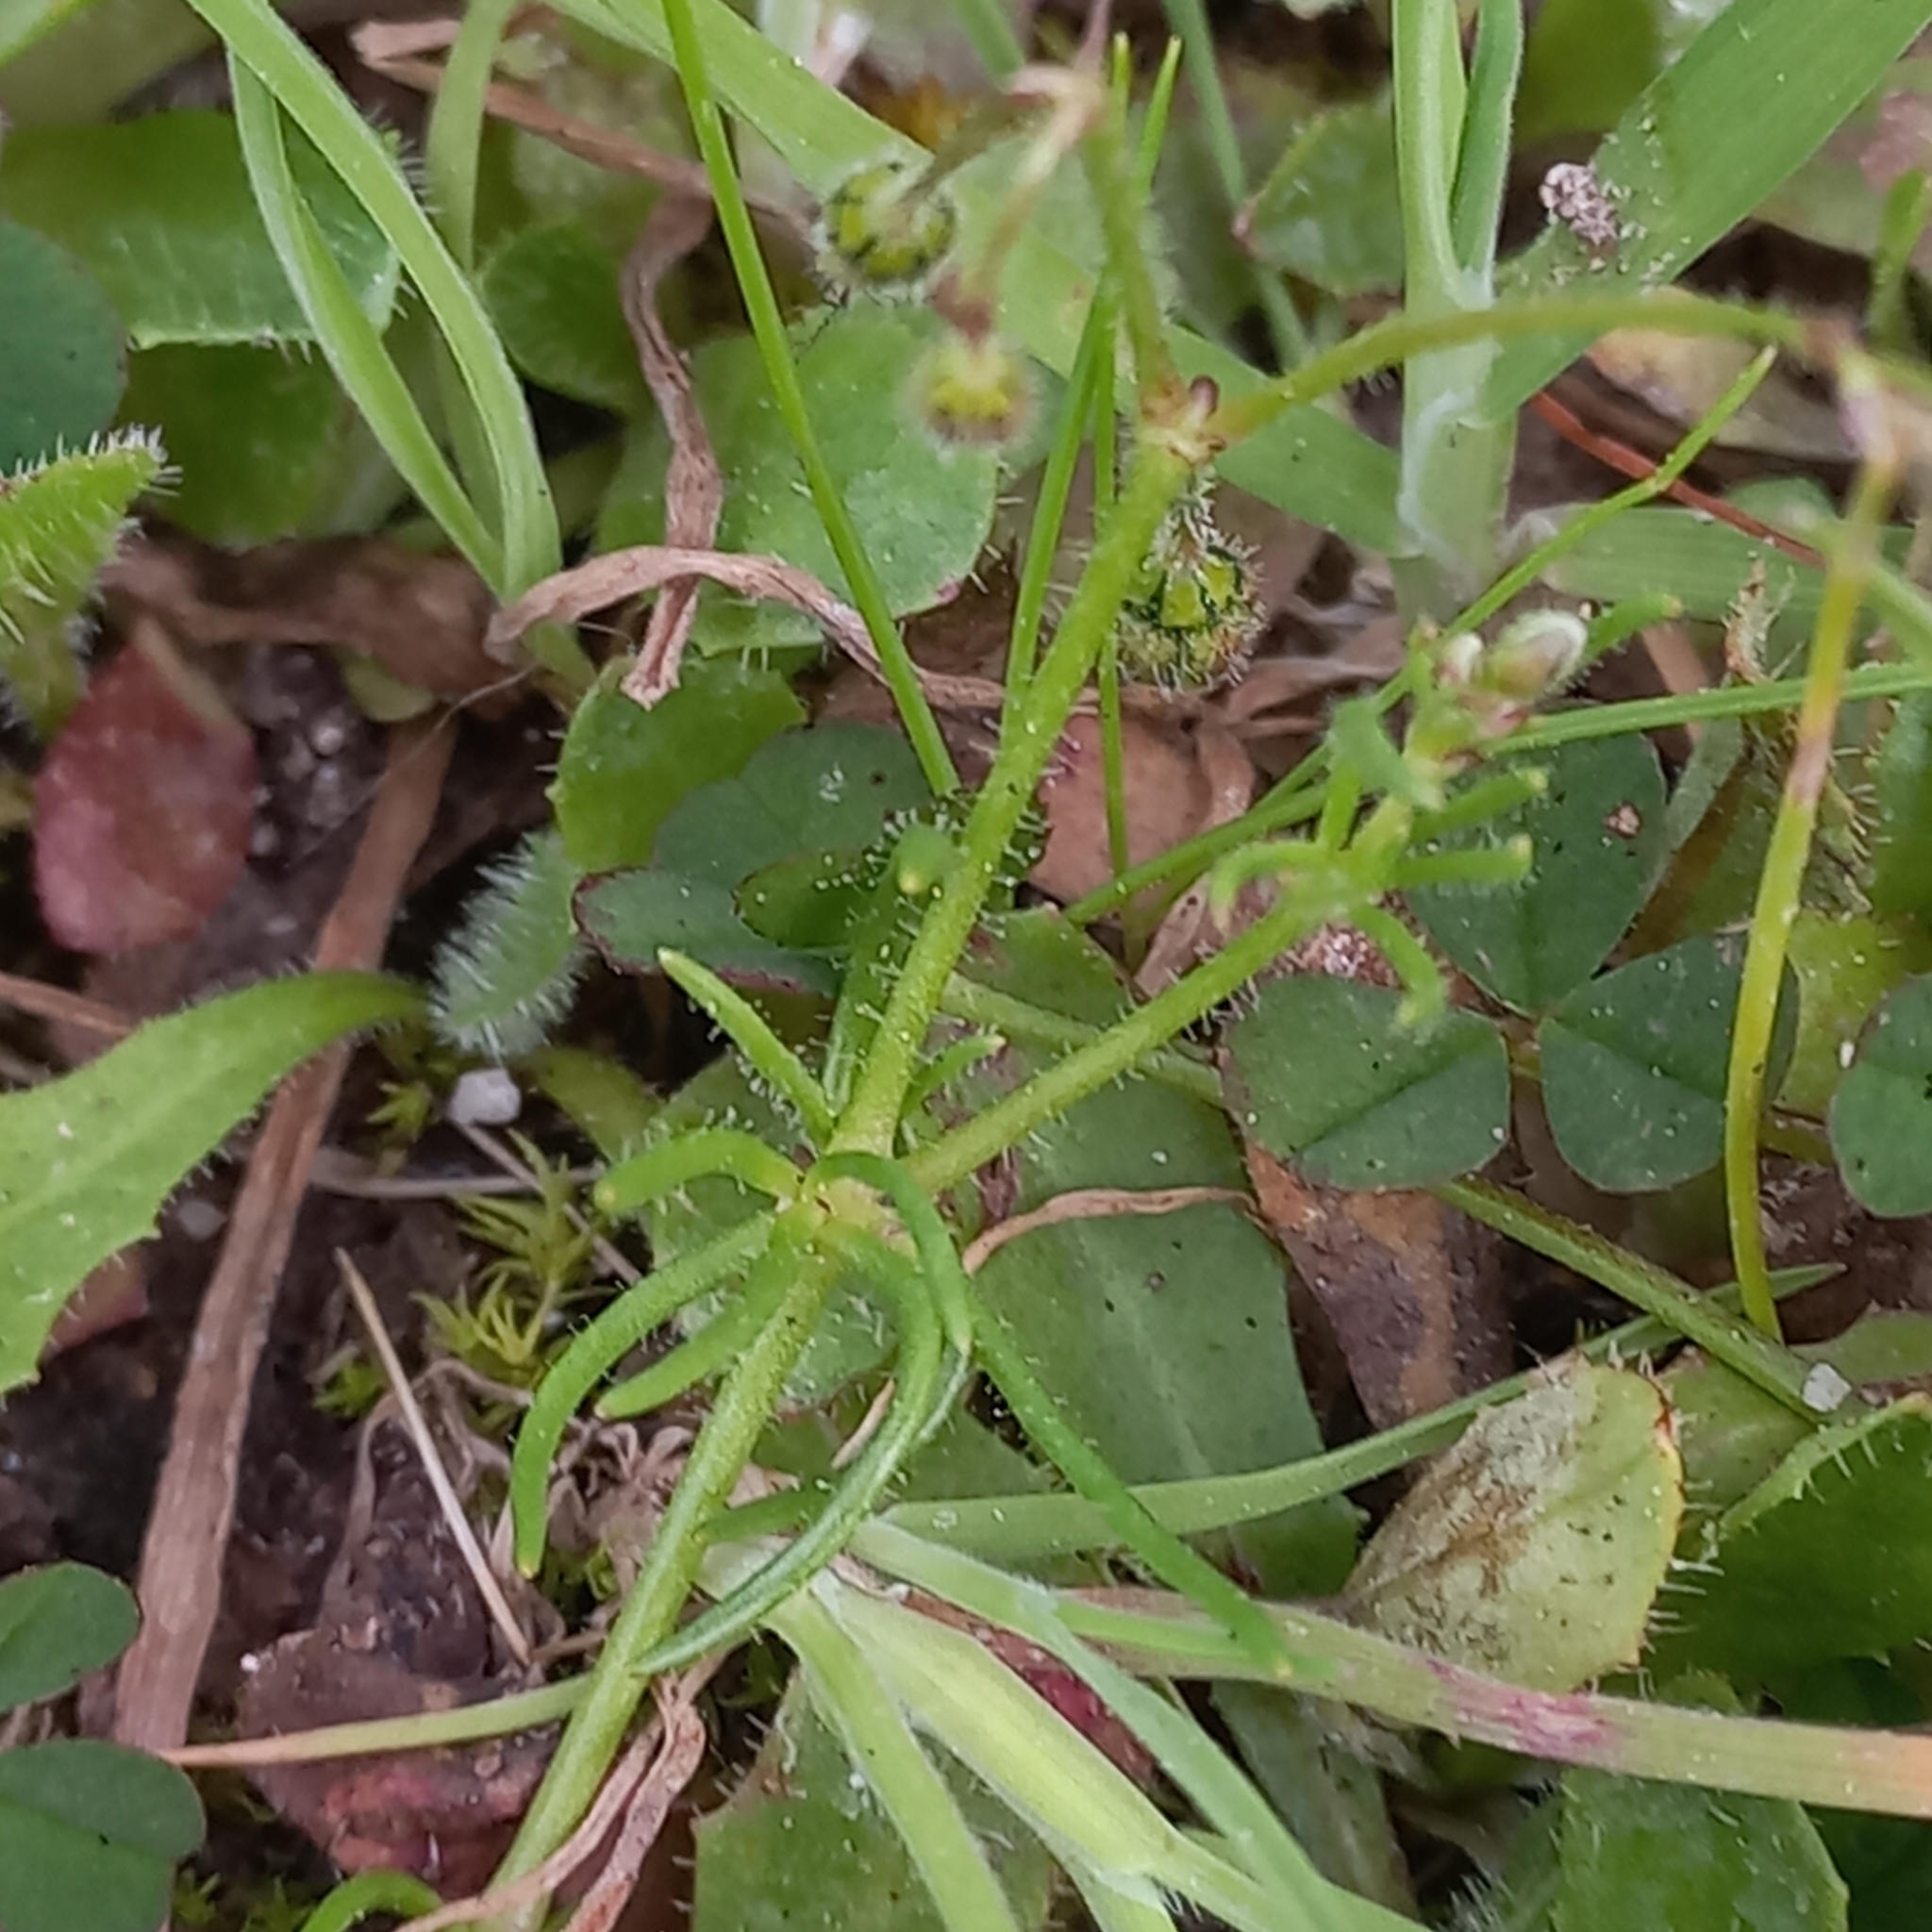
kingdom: Plantae
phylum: Tracheophyta
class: Magnoliopsida
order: Caryophyllales
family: Caryophyllaceae
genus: Spergula
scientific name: Spergula arvensis
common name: Corn spurrey
